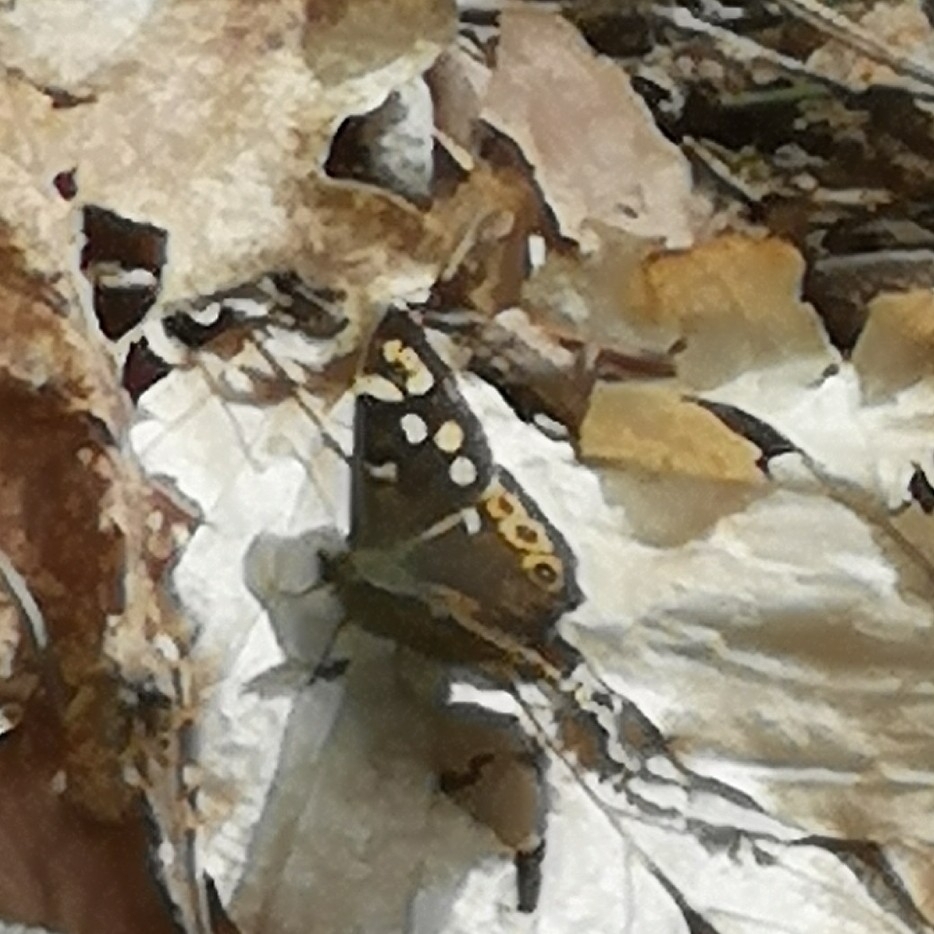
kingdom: Animalia
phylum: Arthropoda
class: Insecta
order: Lepidoptera
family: Nymphalidae
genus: Pararge
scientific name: Pararge aegeria
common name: Speckled wood
